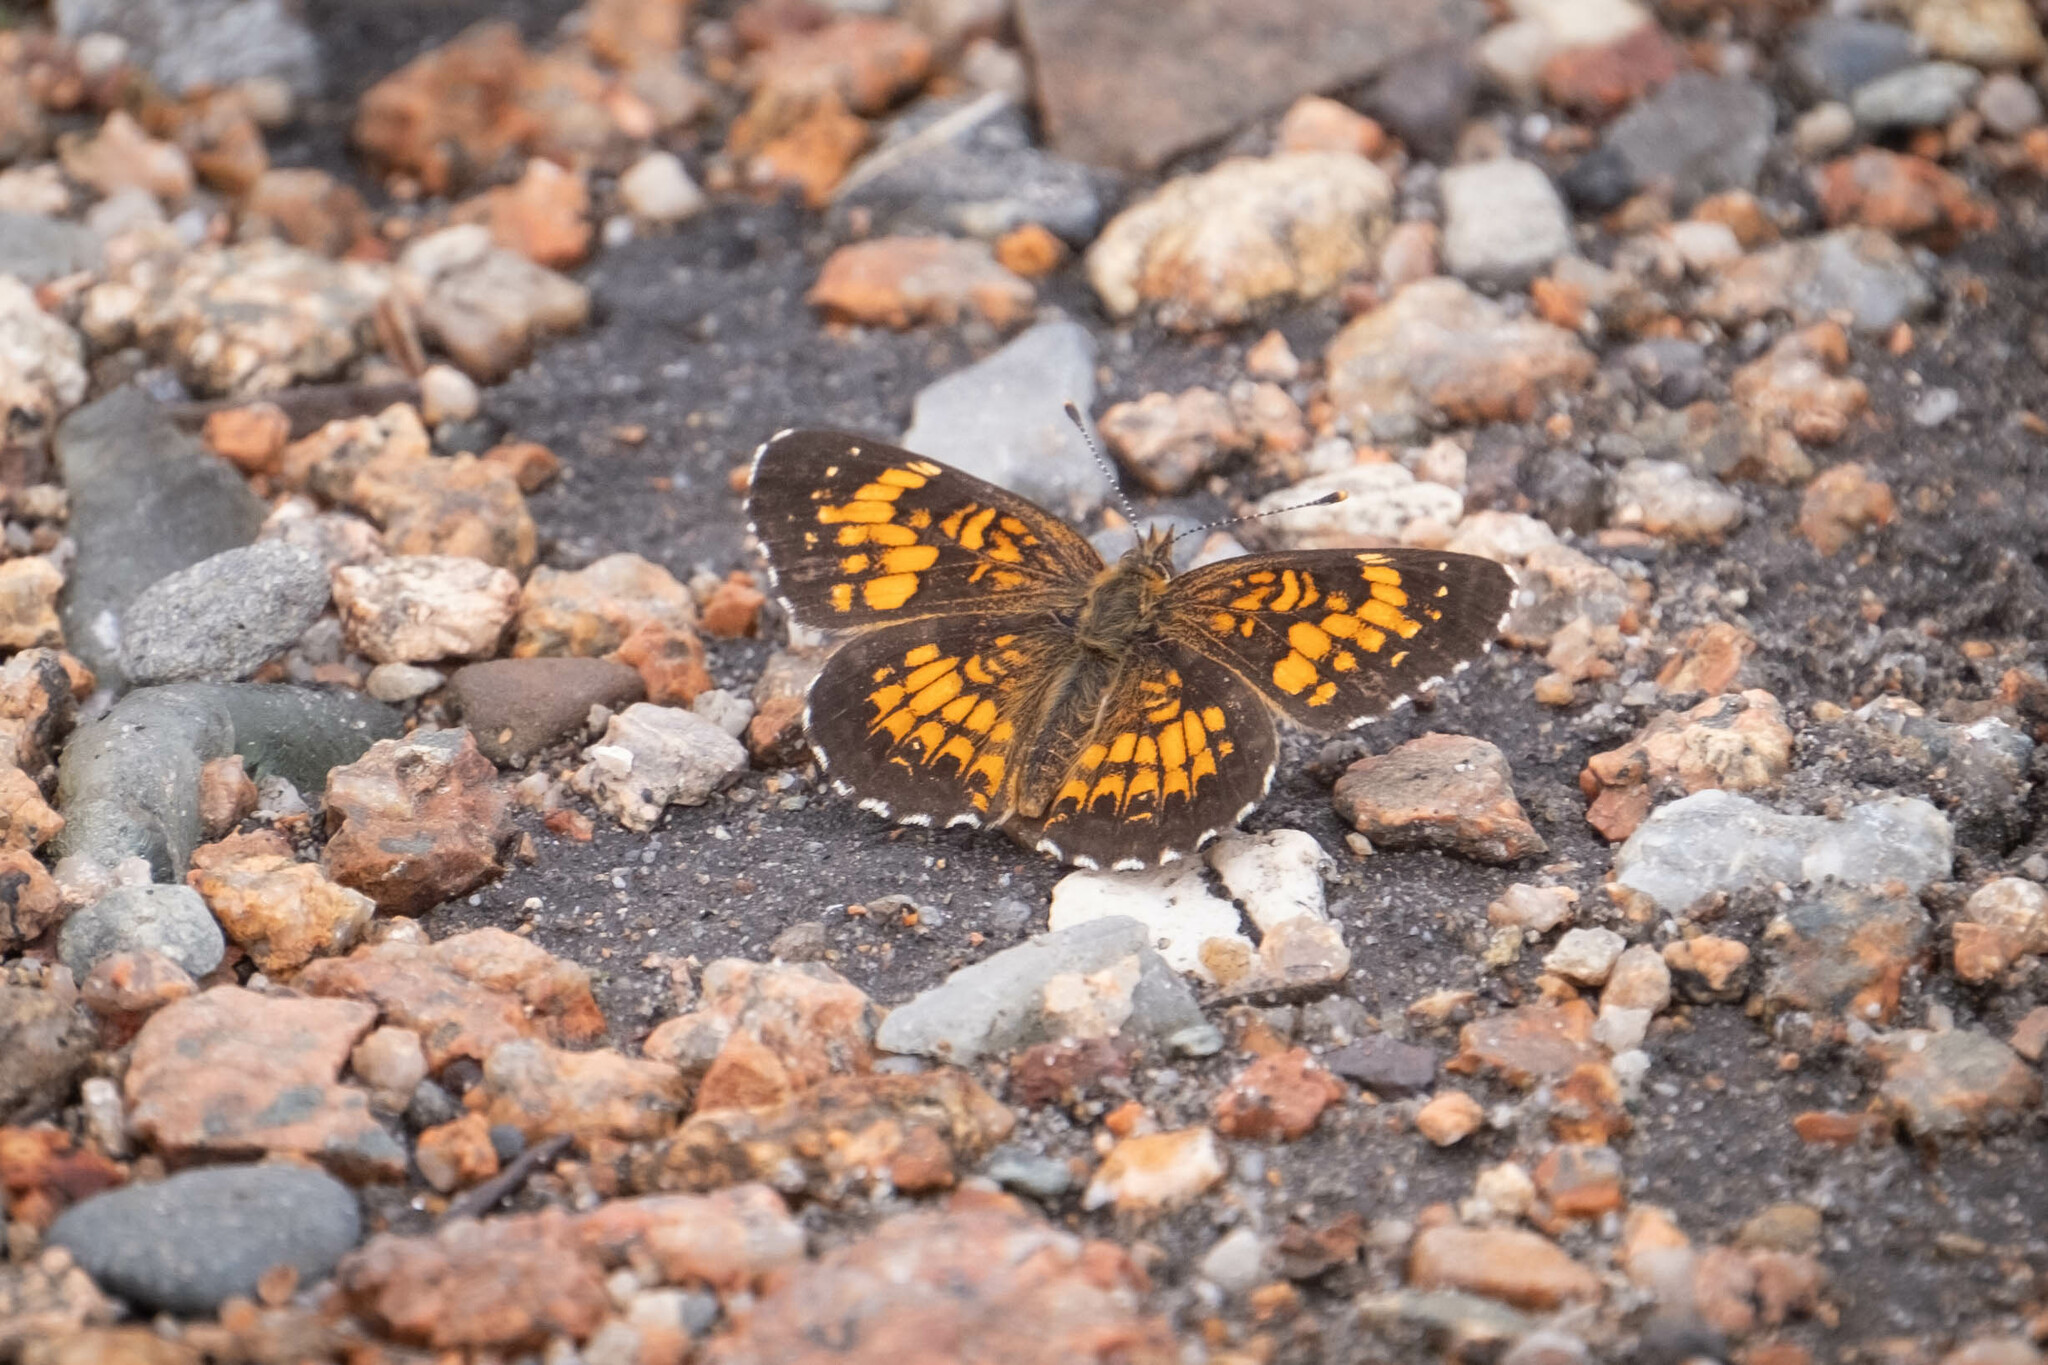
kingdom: Animalia
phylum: Arthropoda
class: Insecta
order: Lepidoptera
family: Nymphalidae
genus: Chlosyne
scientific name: Chlosyne harrisii
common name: Harris's checkerspot
